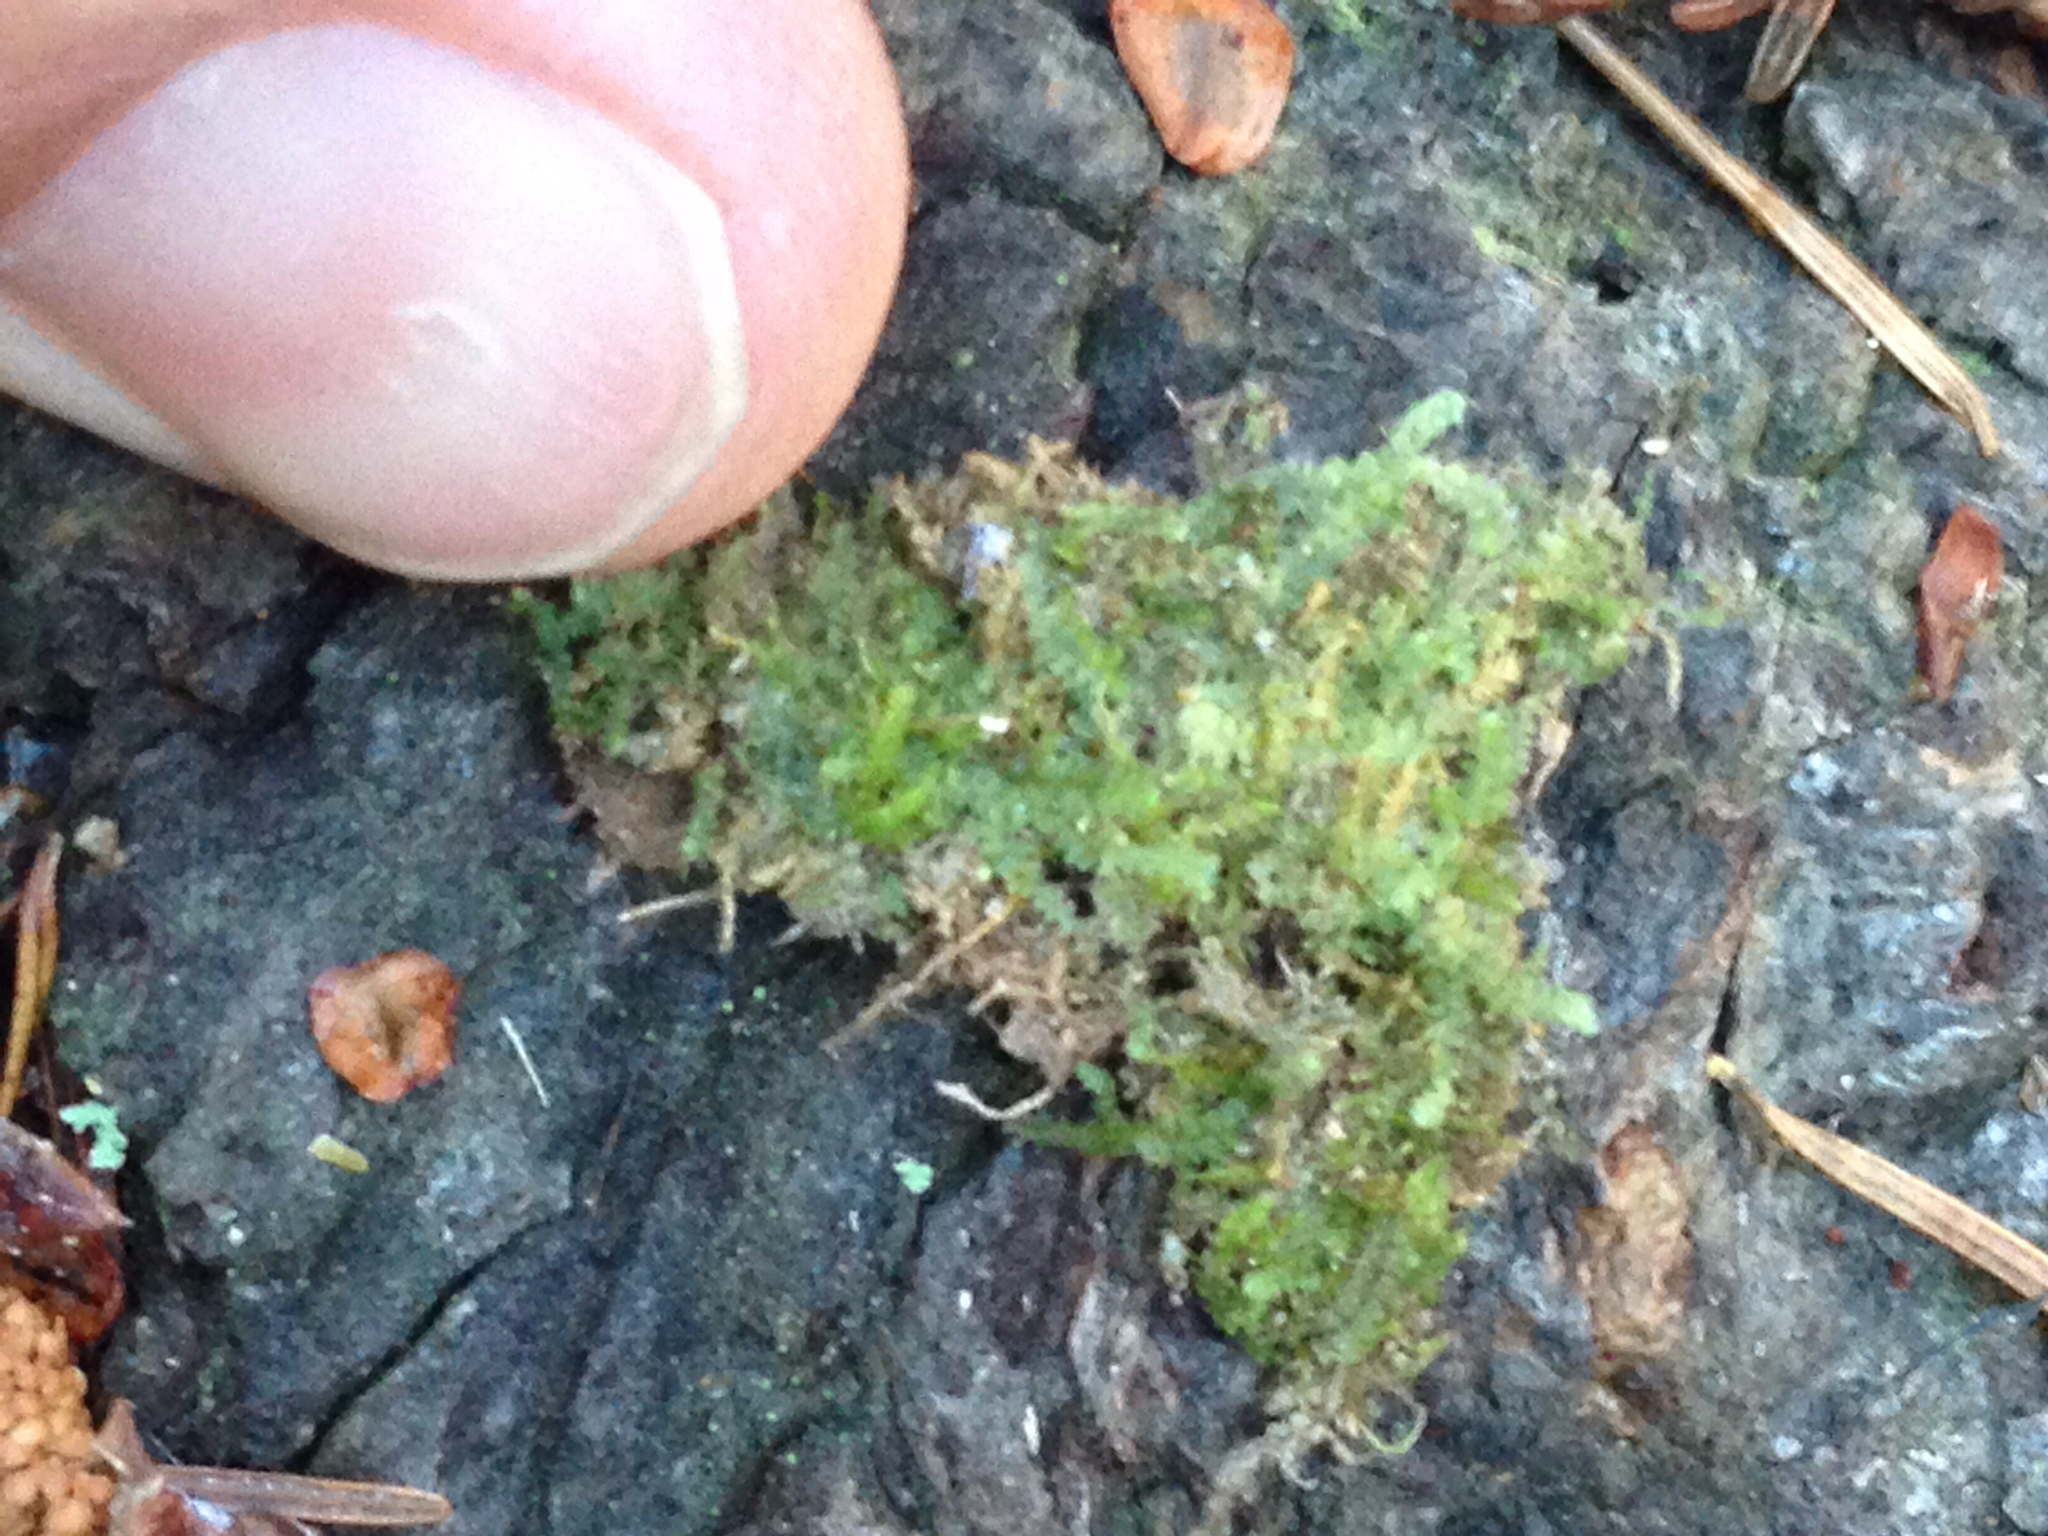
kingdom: Plantae
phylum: Marchantiophyta
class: Jungermanniopsida
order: Jungermanniales
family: Calypogeiaceae
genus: Calypogeia
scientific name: Calypogeia neogaea
